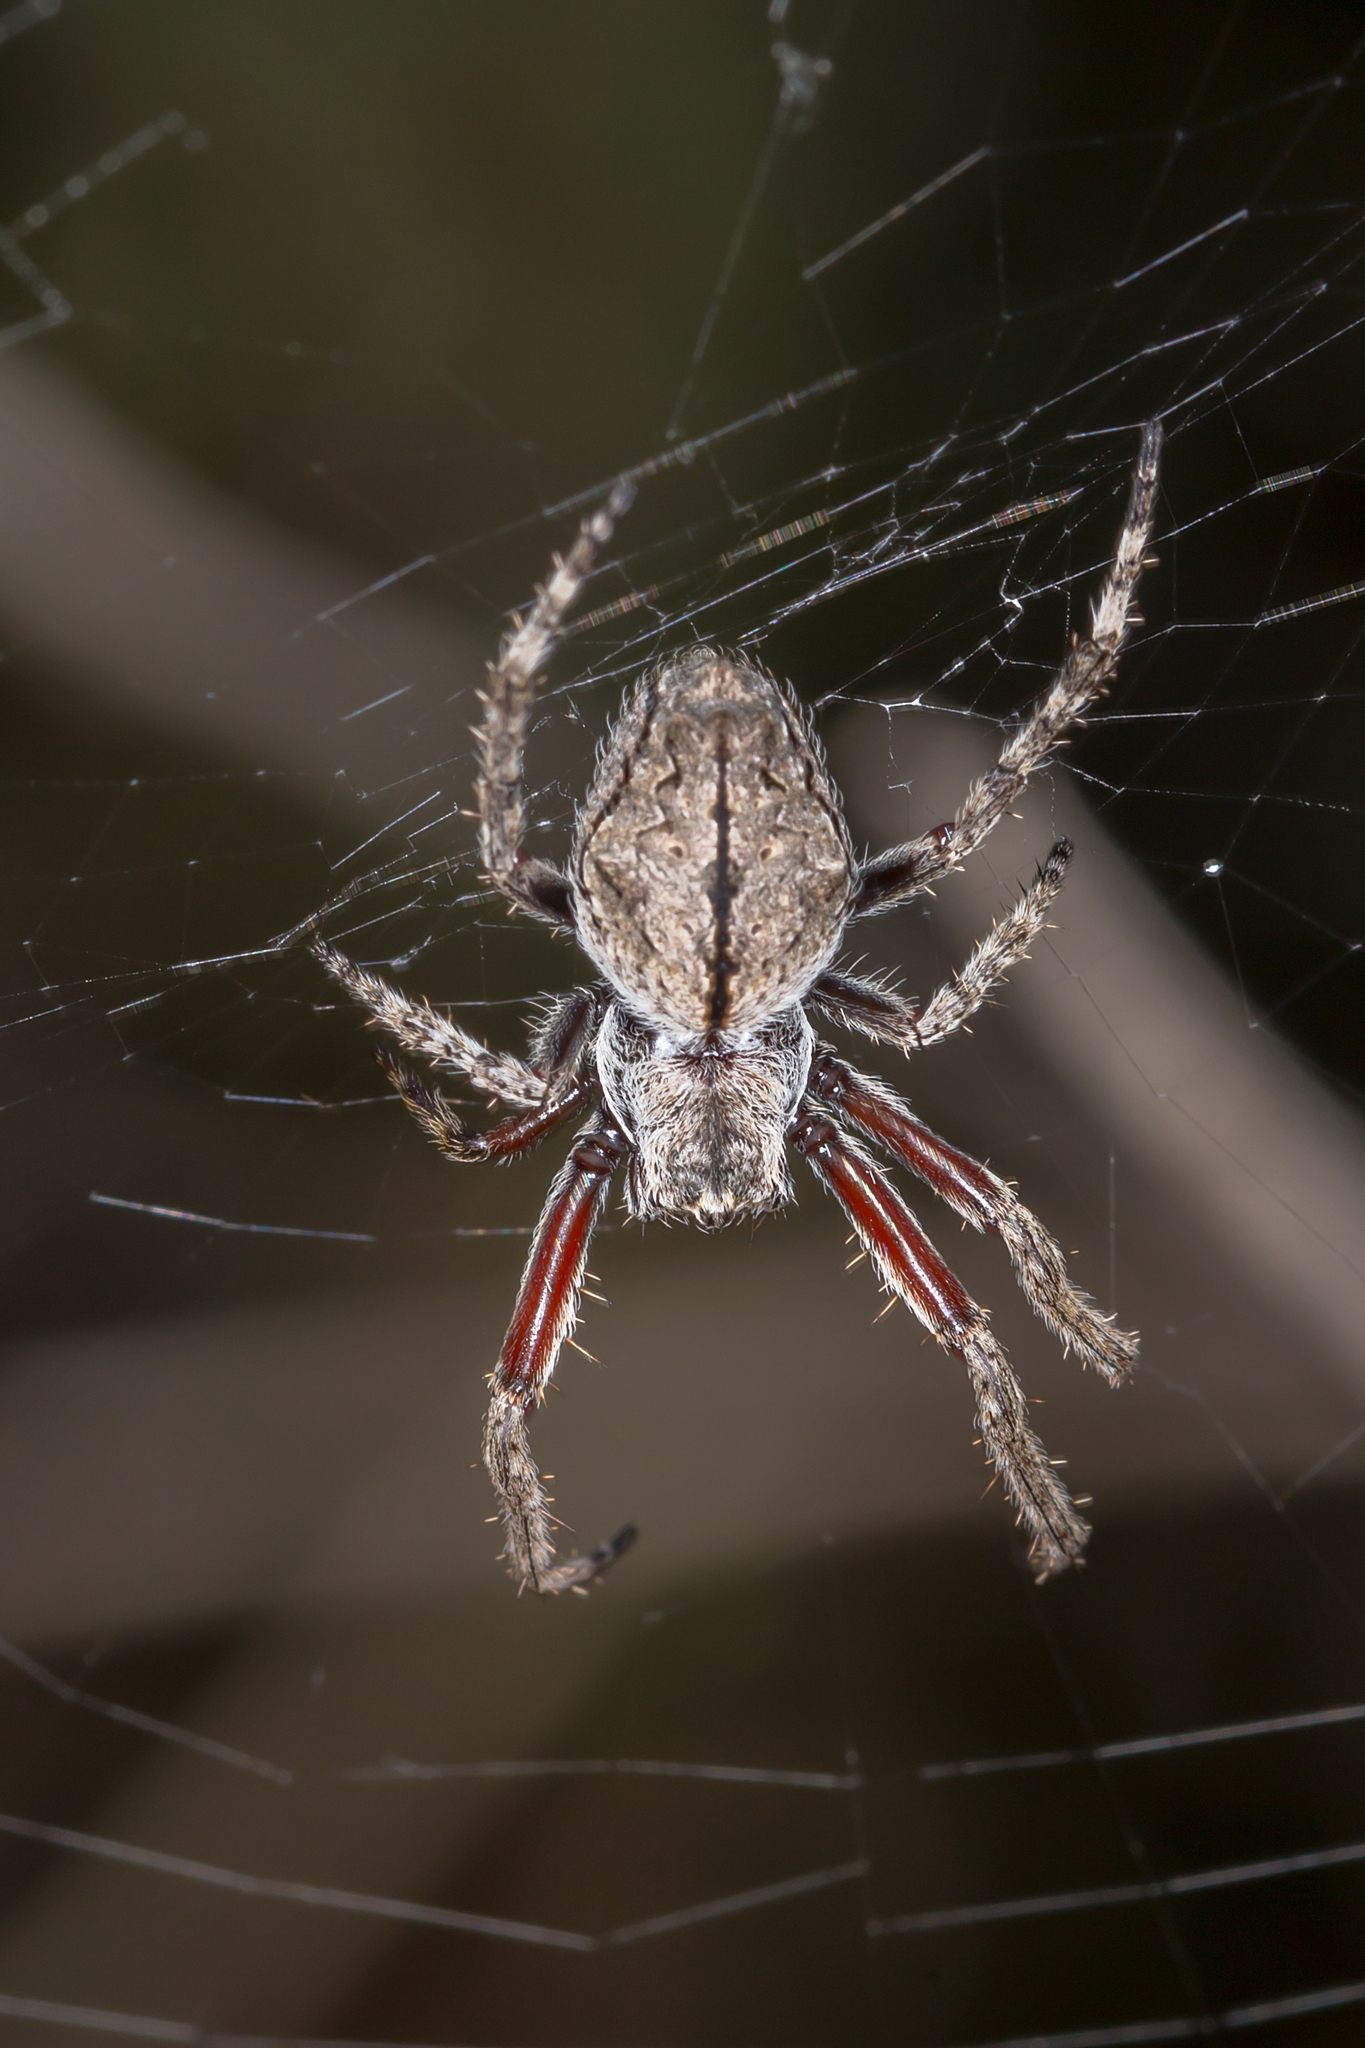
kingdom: Animalia
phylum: Arthropoda
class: Arachnida
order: Araneae
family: Araneidae
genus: Eriophora
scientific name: Eriophora pustulosa
